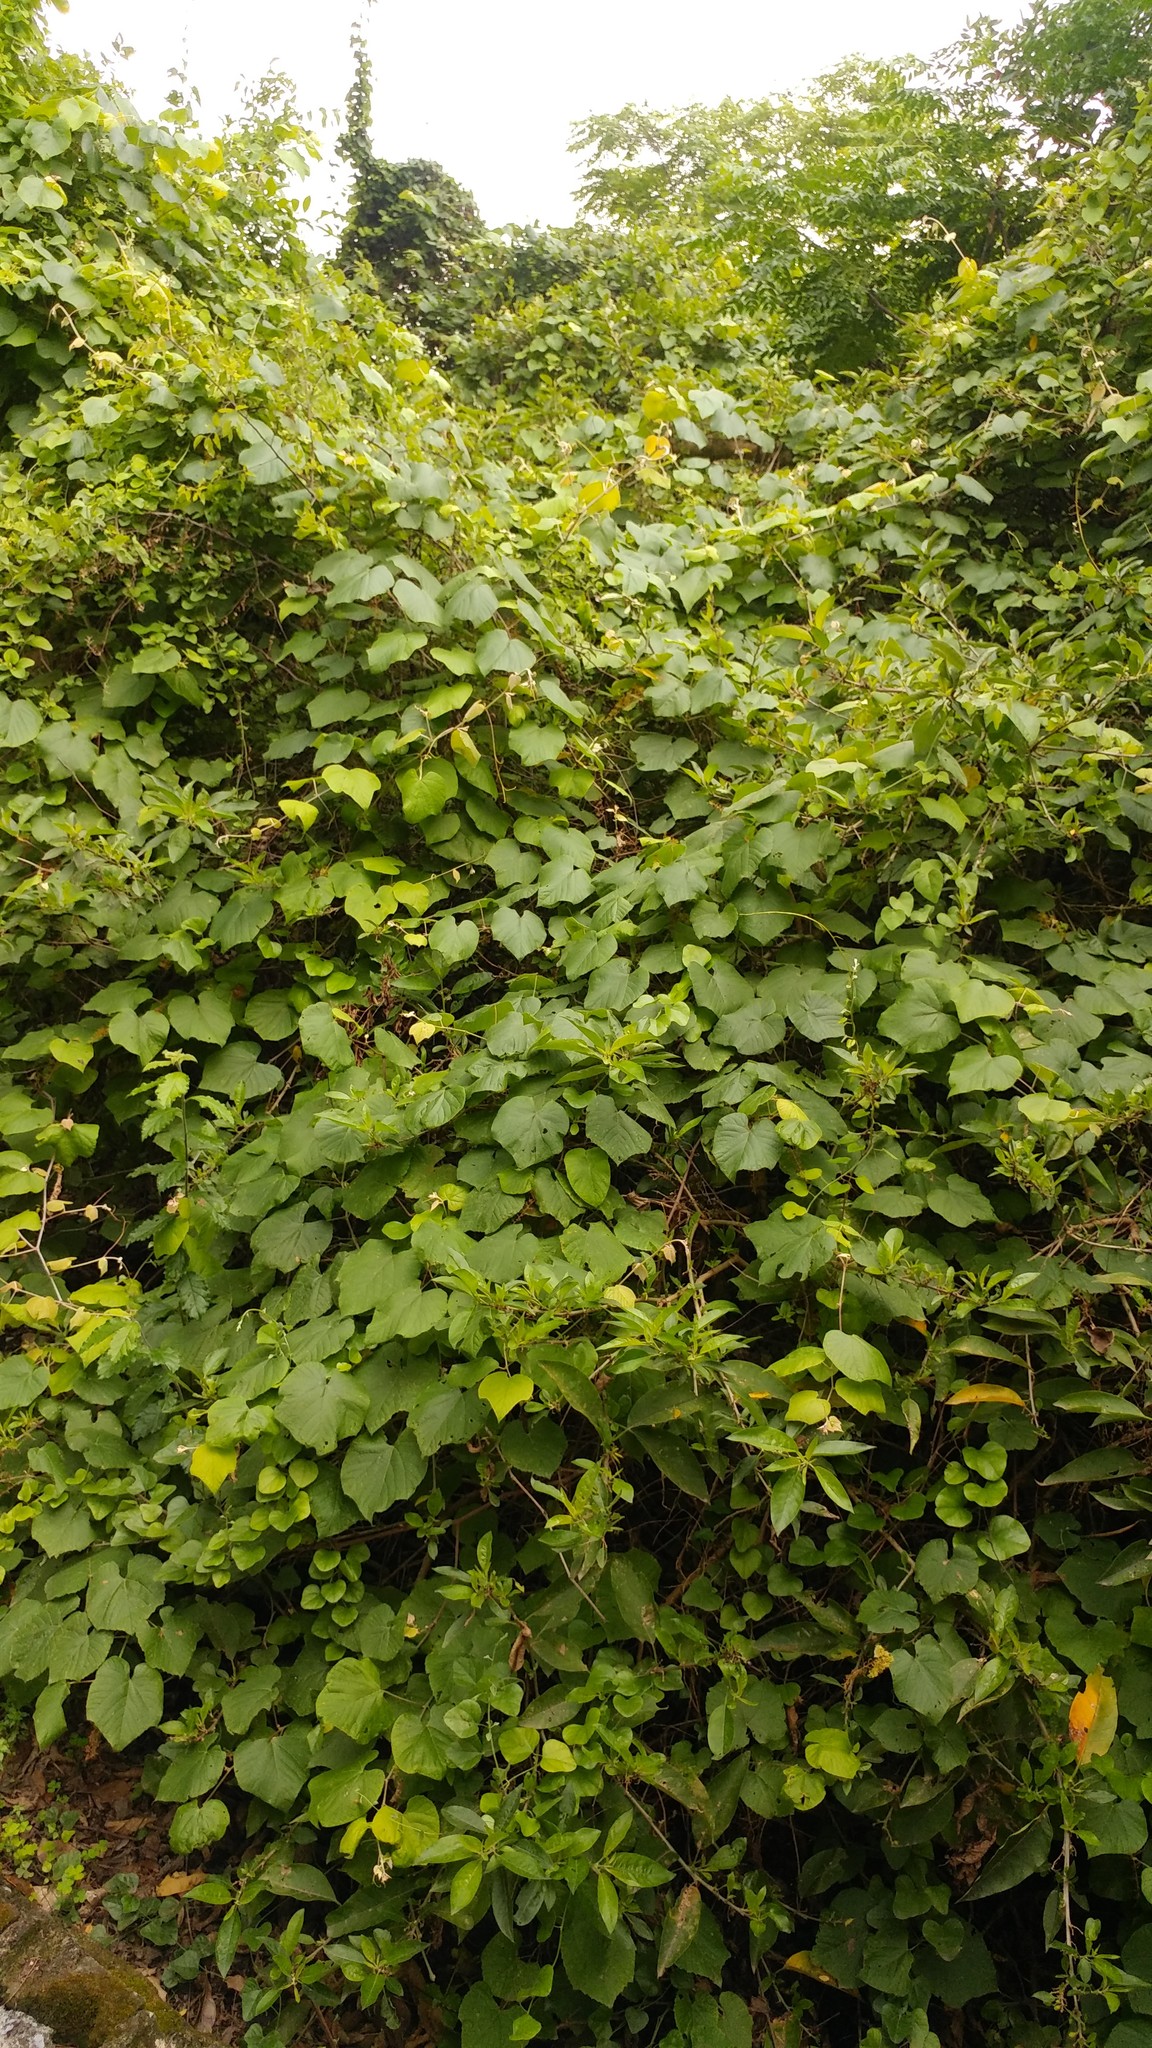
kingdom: Plantae
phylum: Tracheophyta
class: Magnoliopsida
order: Vitales
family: Vitaceae
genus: Vitis
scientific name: Vitis cinerea
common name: Ashy grape
